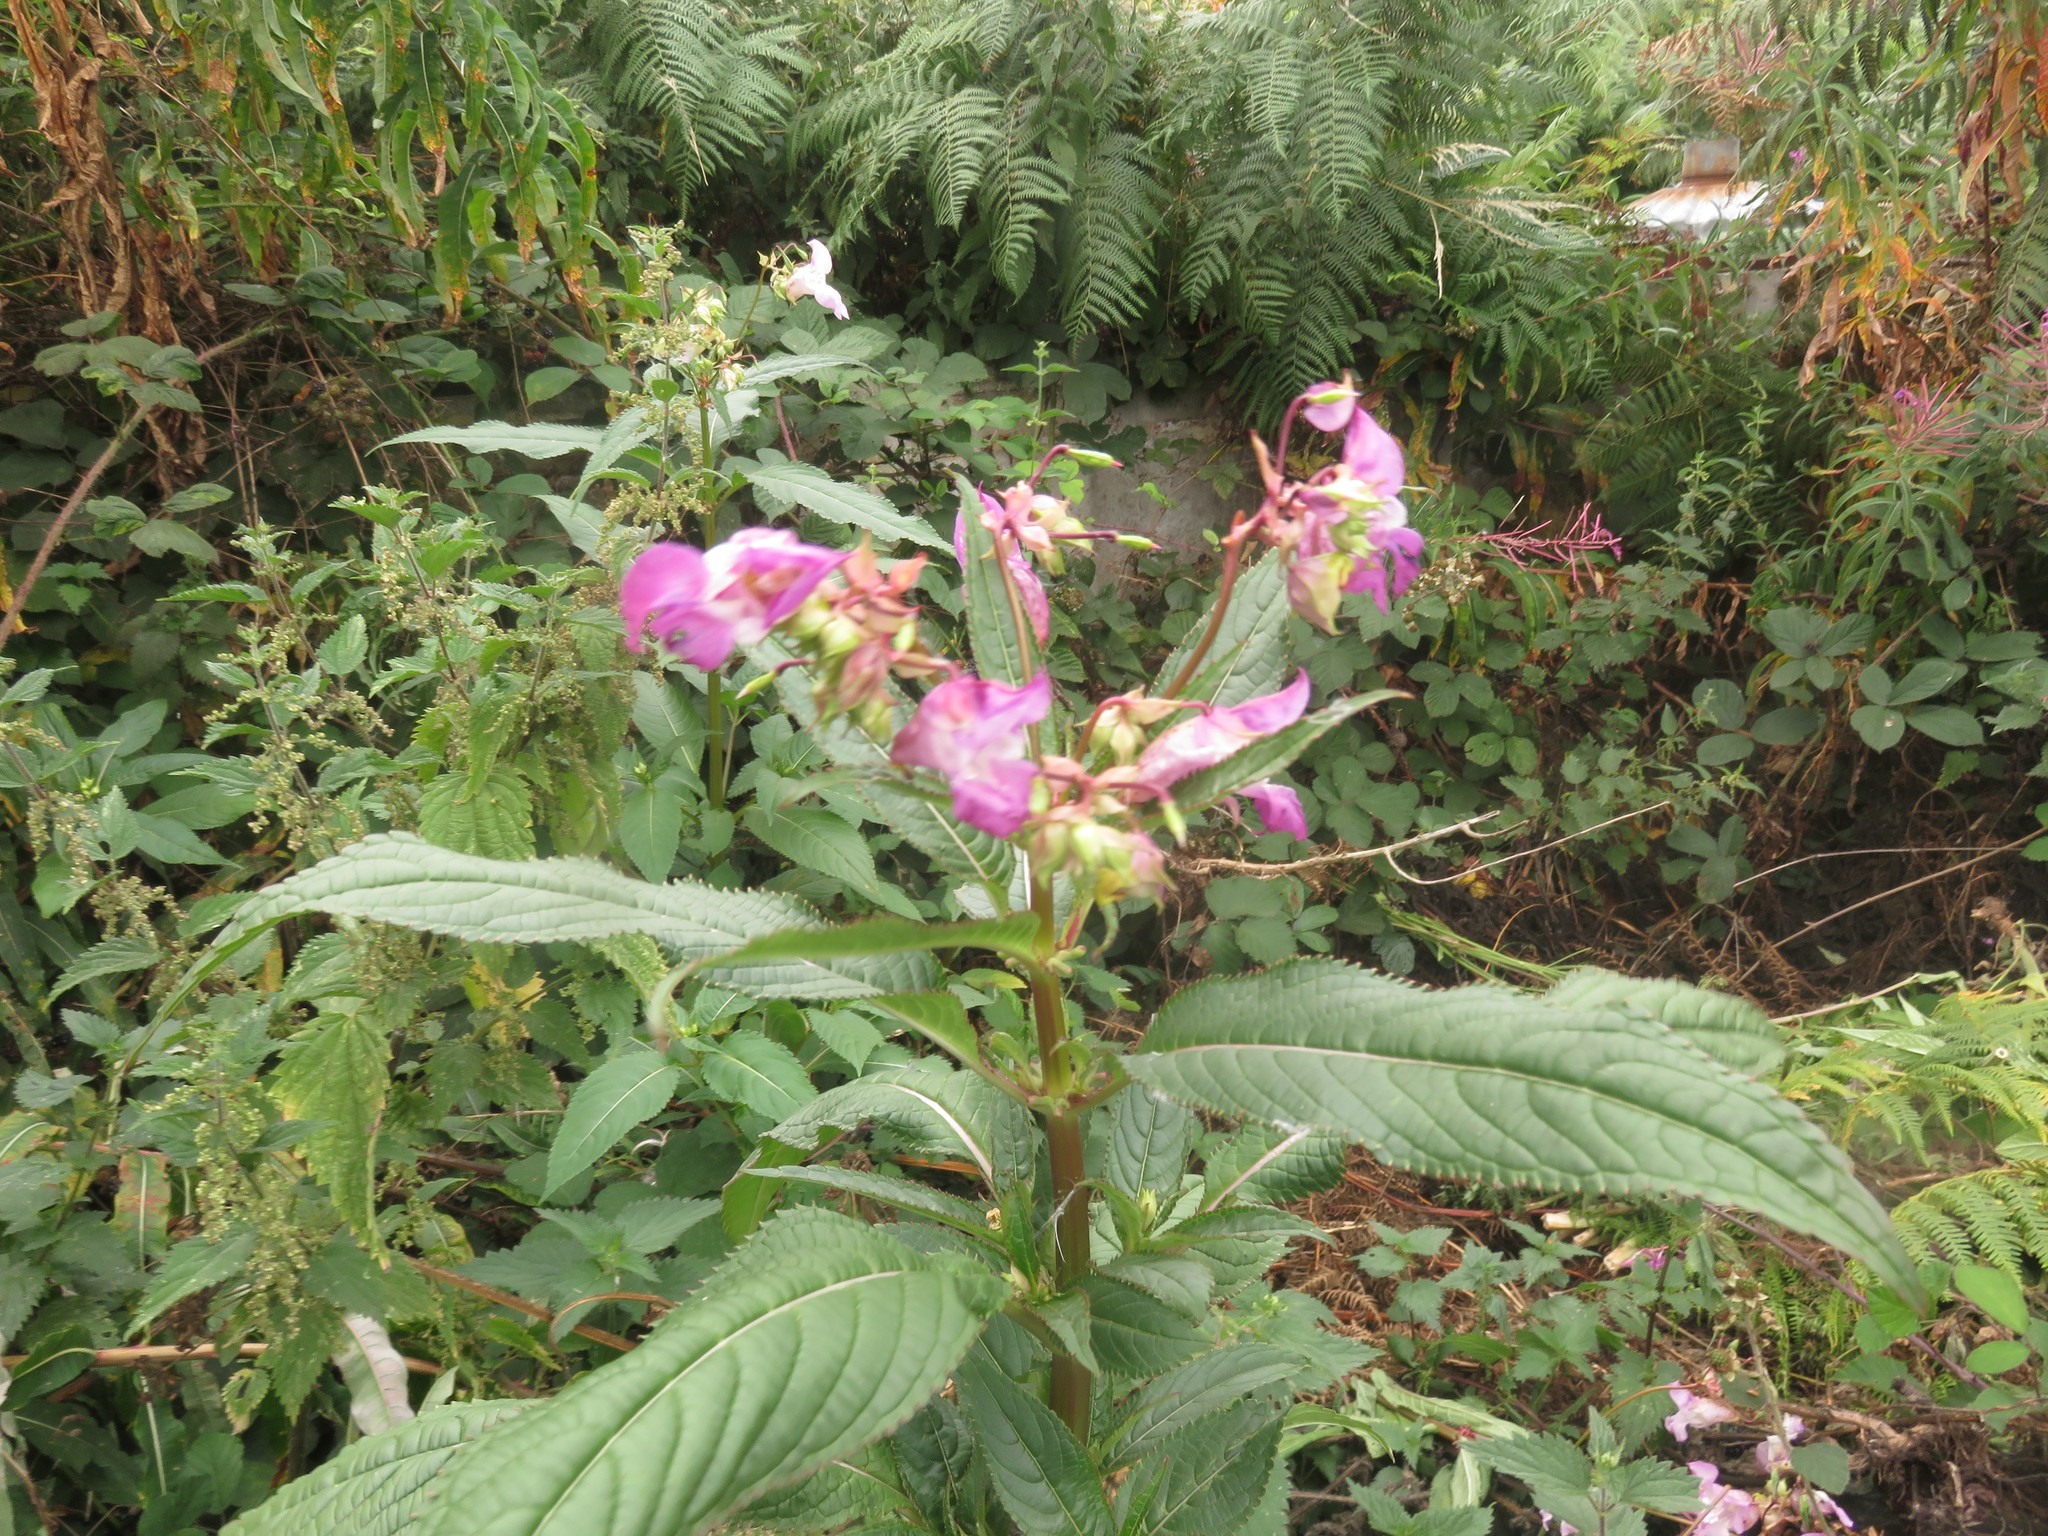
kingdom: Plantae
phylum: Tracheophyta
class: Magnoliopsida
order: Ericales
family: Balsaminaceae
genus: Impatiens
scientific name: Impatiens glandulifera
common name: Himalayan balsam
